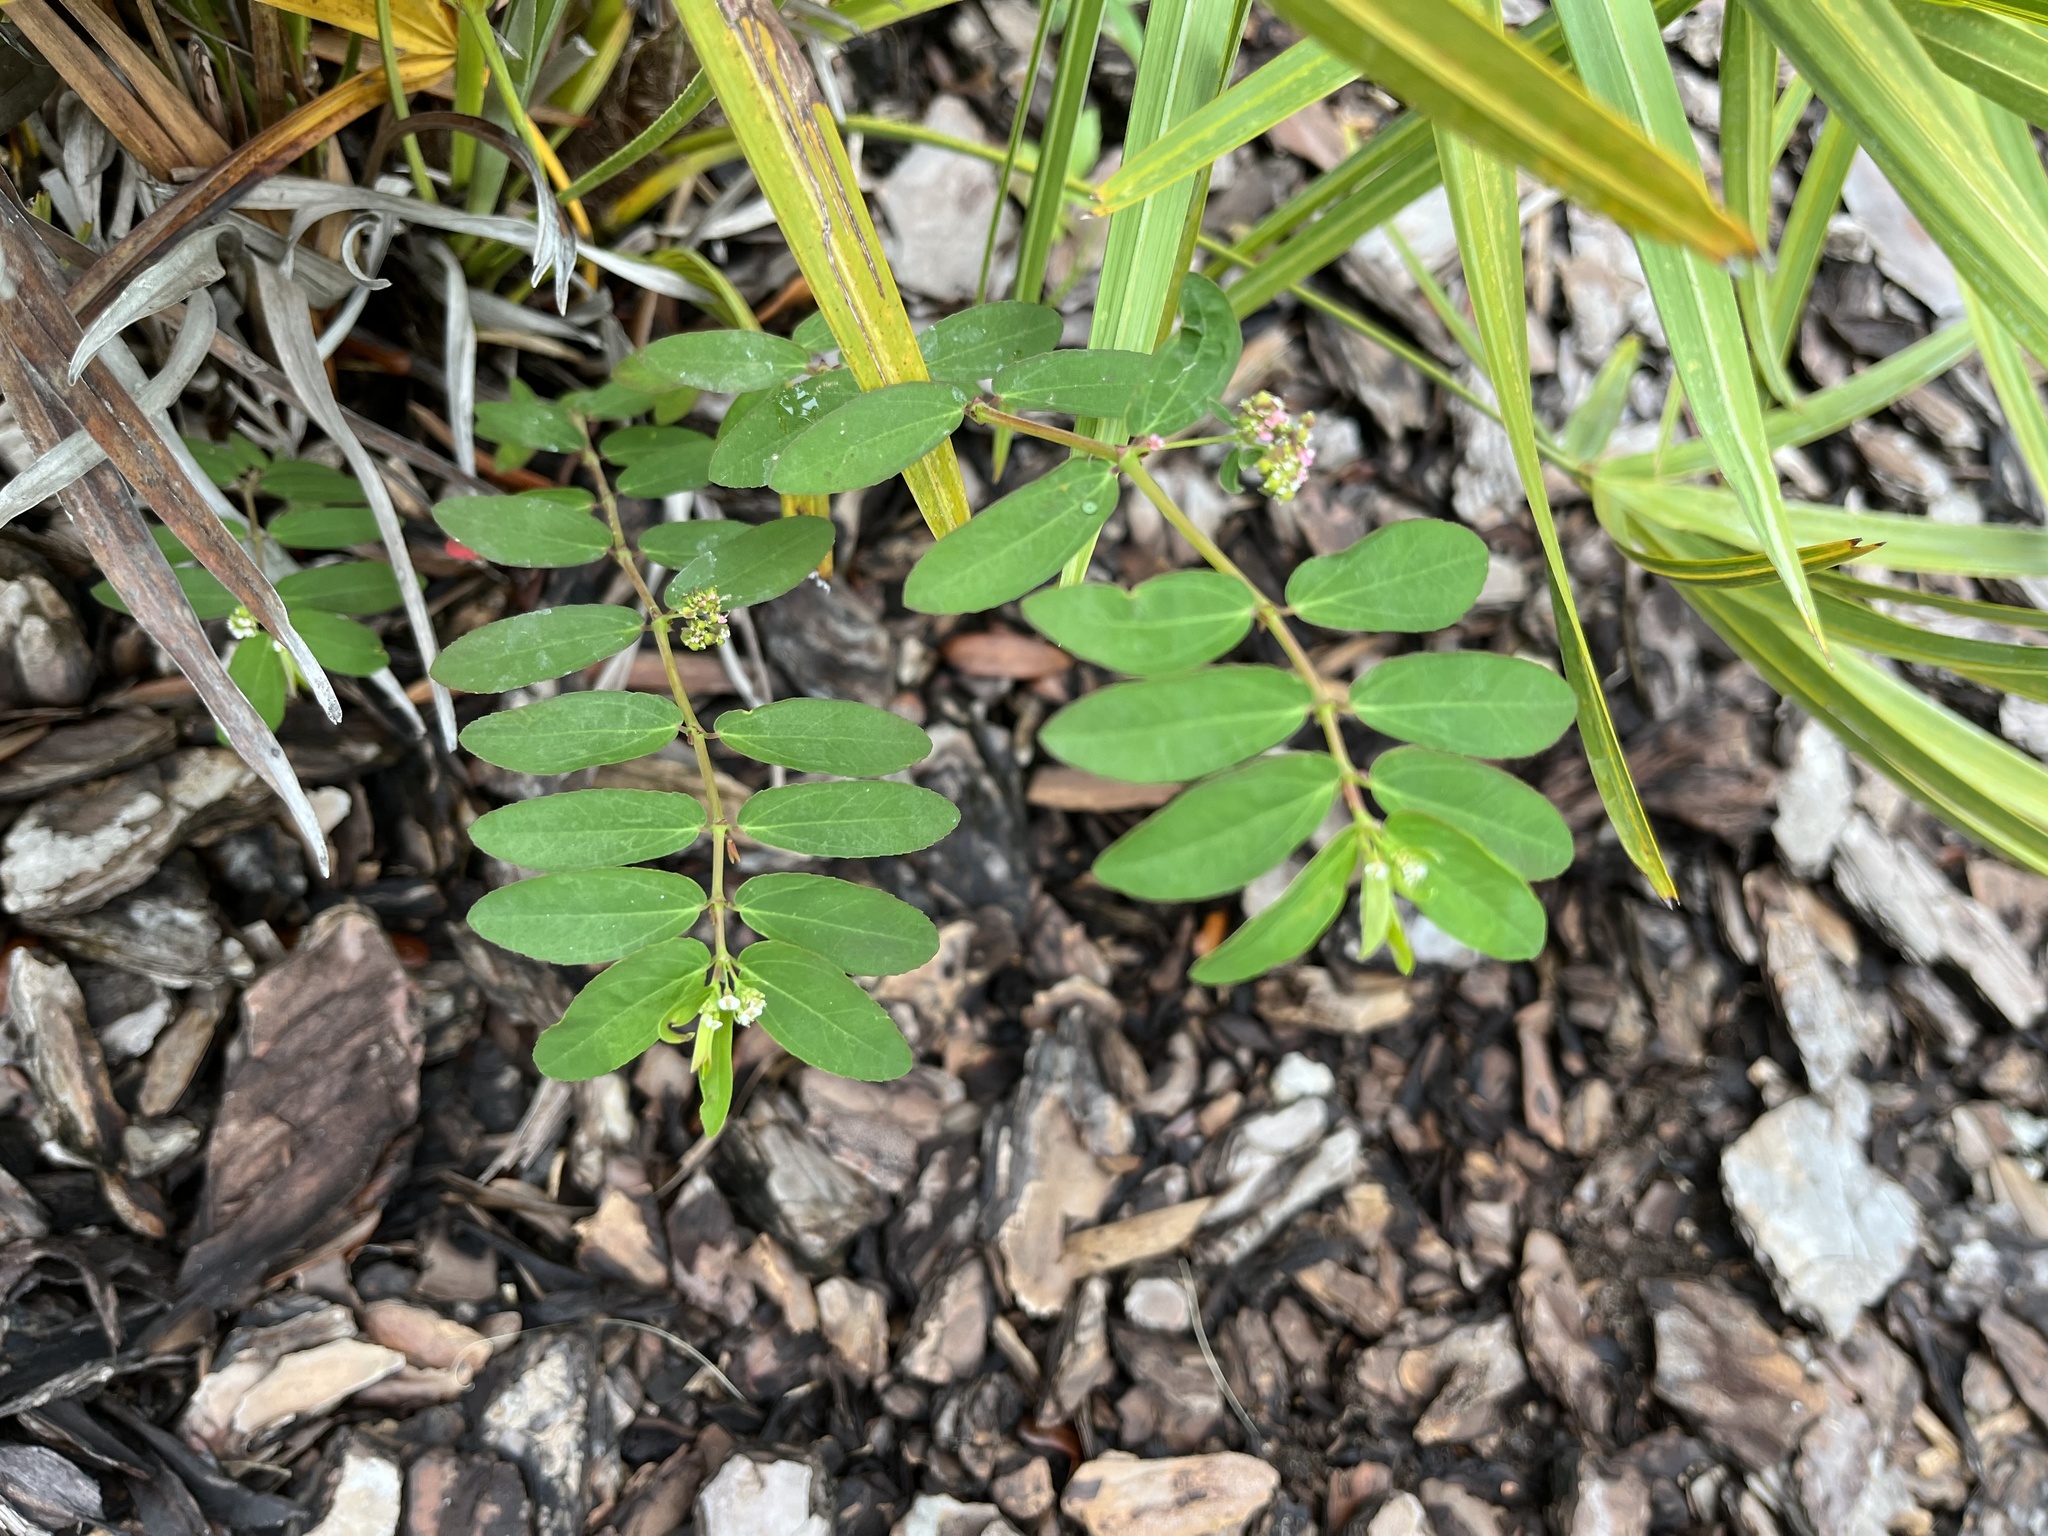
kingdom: Plantae
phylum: Tracheophyta
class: Magnoliopsida
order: Malpighiales
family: Euphorbiaceae
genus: Euphorbia
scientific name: Euphorbia hypericifolia
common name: Graceful sandmat
